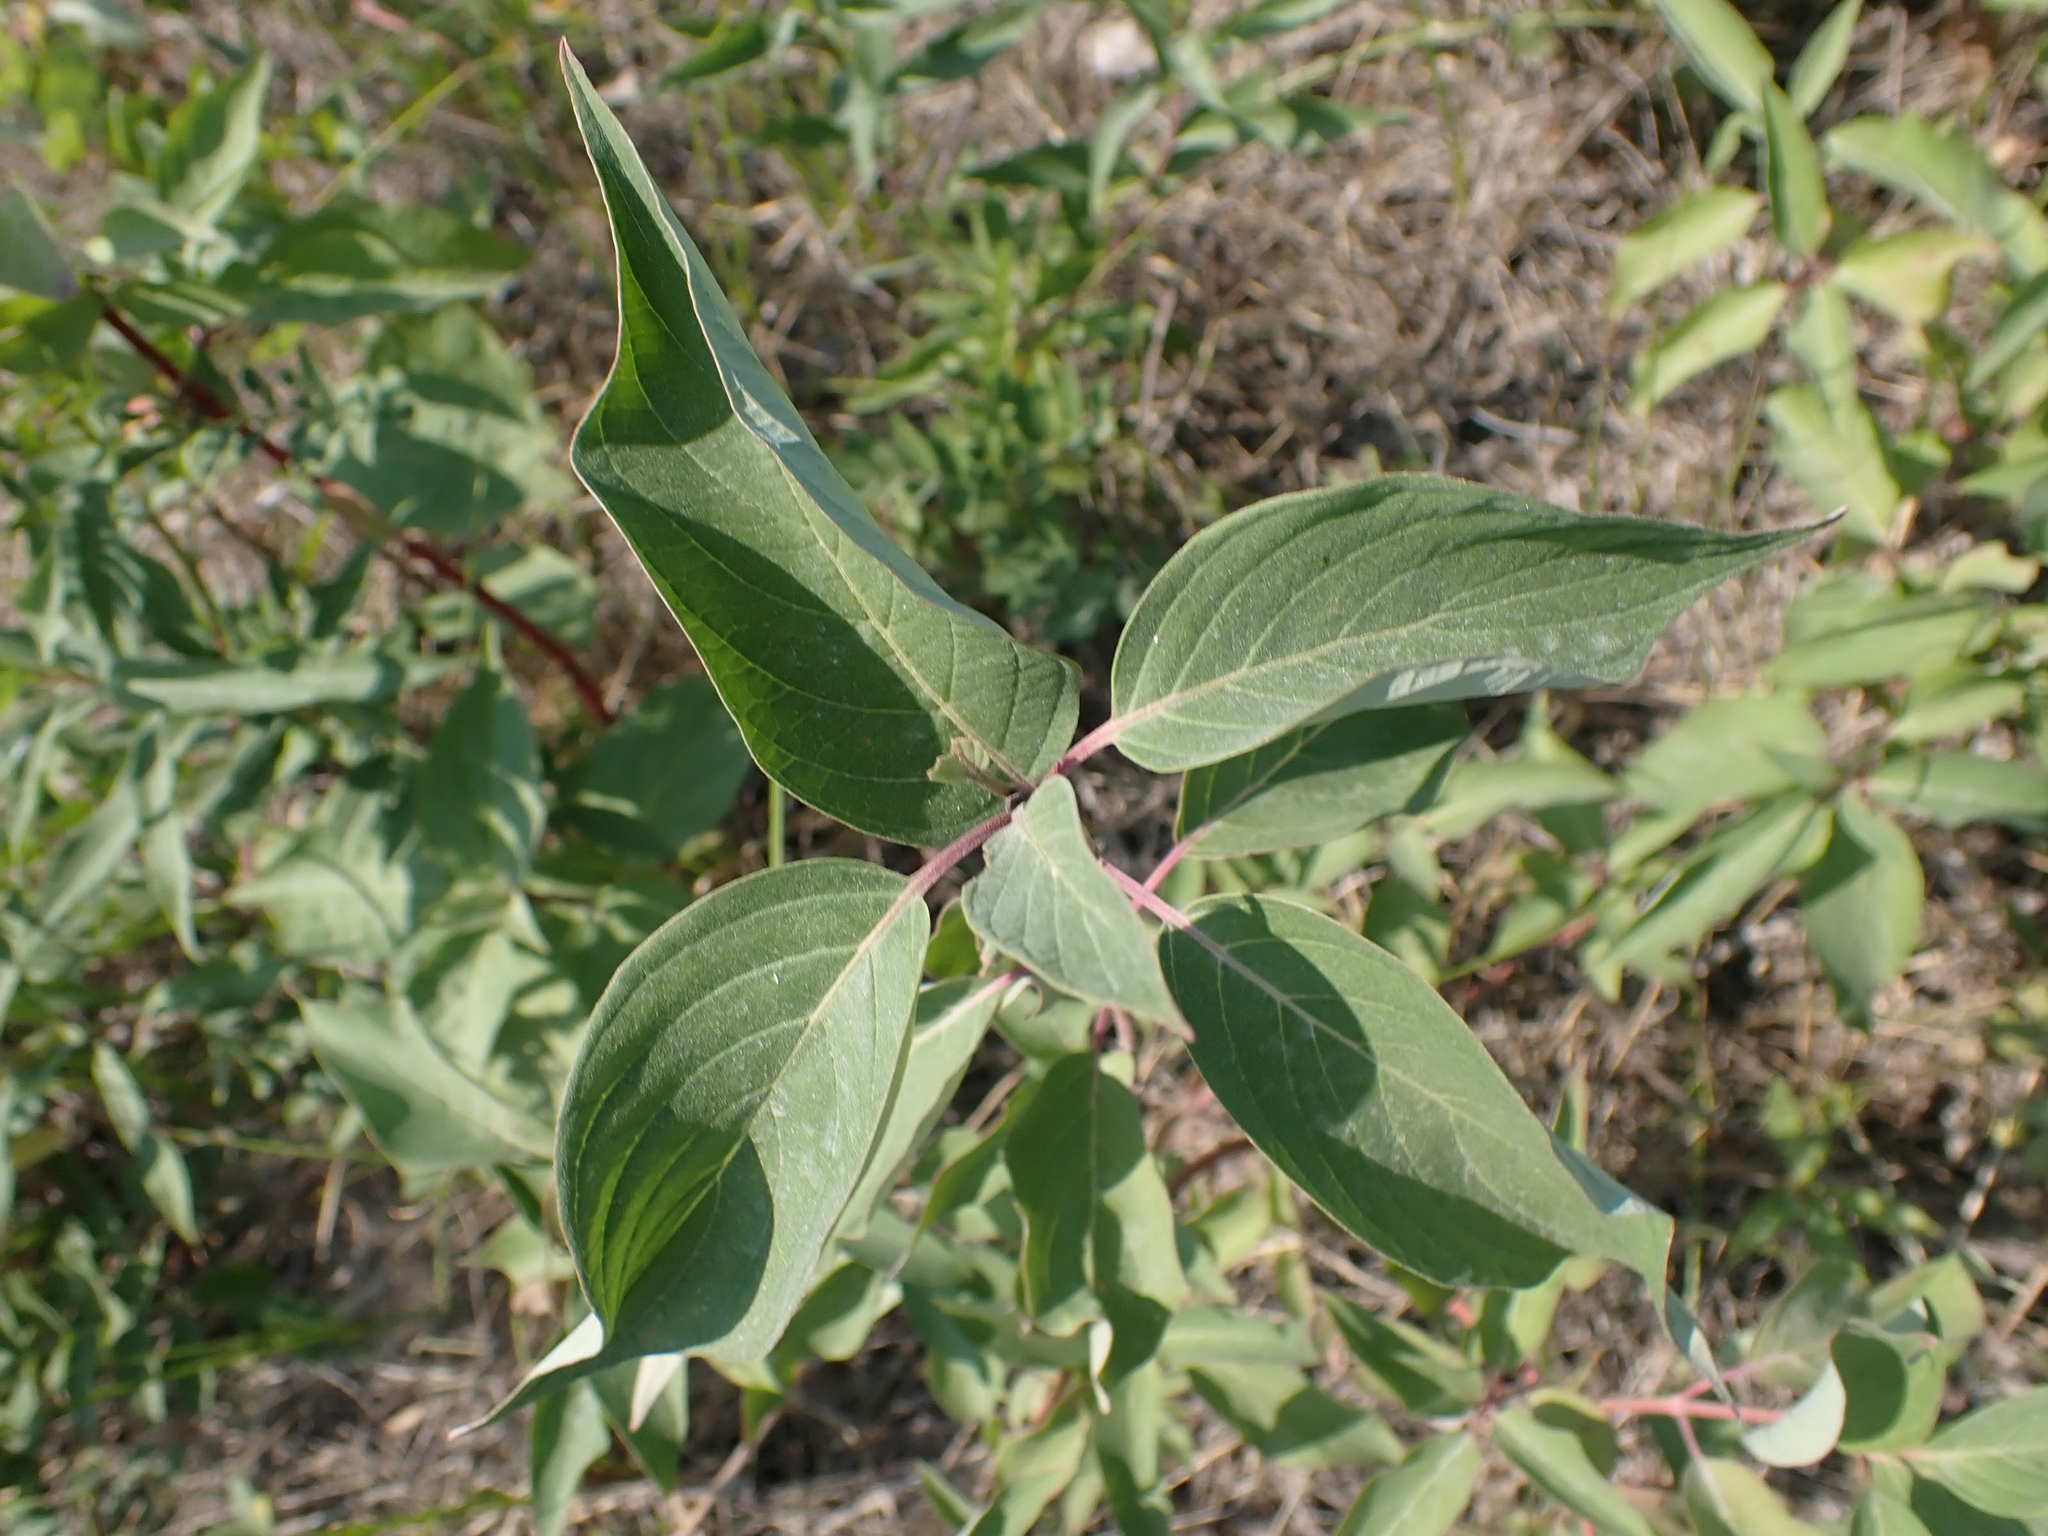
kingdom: Plantae
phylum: Tracheophyta
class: Magnoliopsida
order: Cornales
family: Cornaceae
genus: Cornus
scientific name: Cornus sericea
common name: Red-osier dogwood
